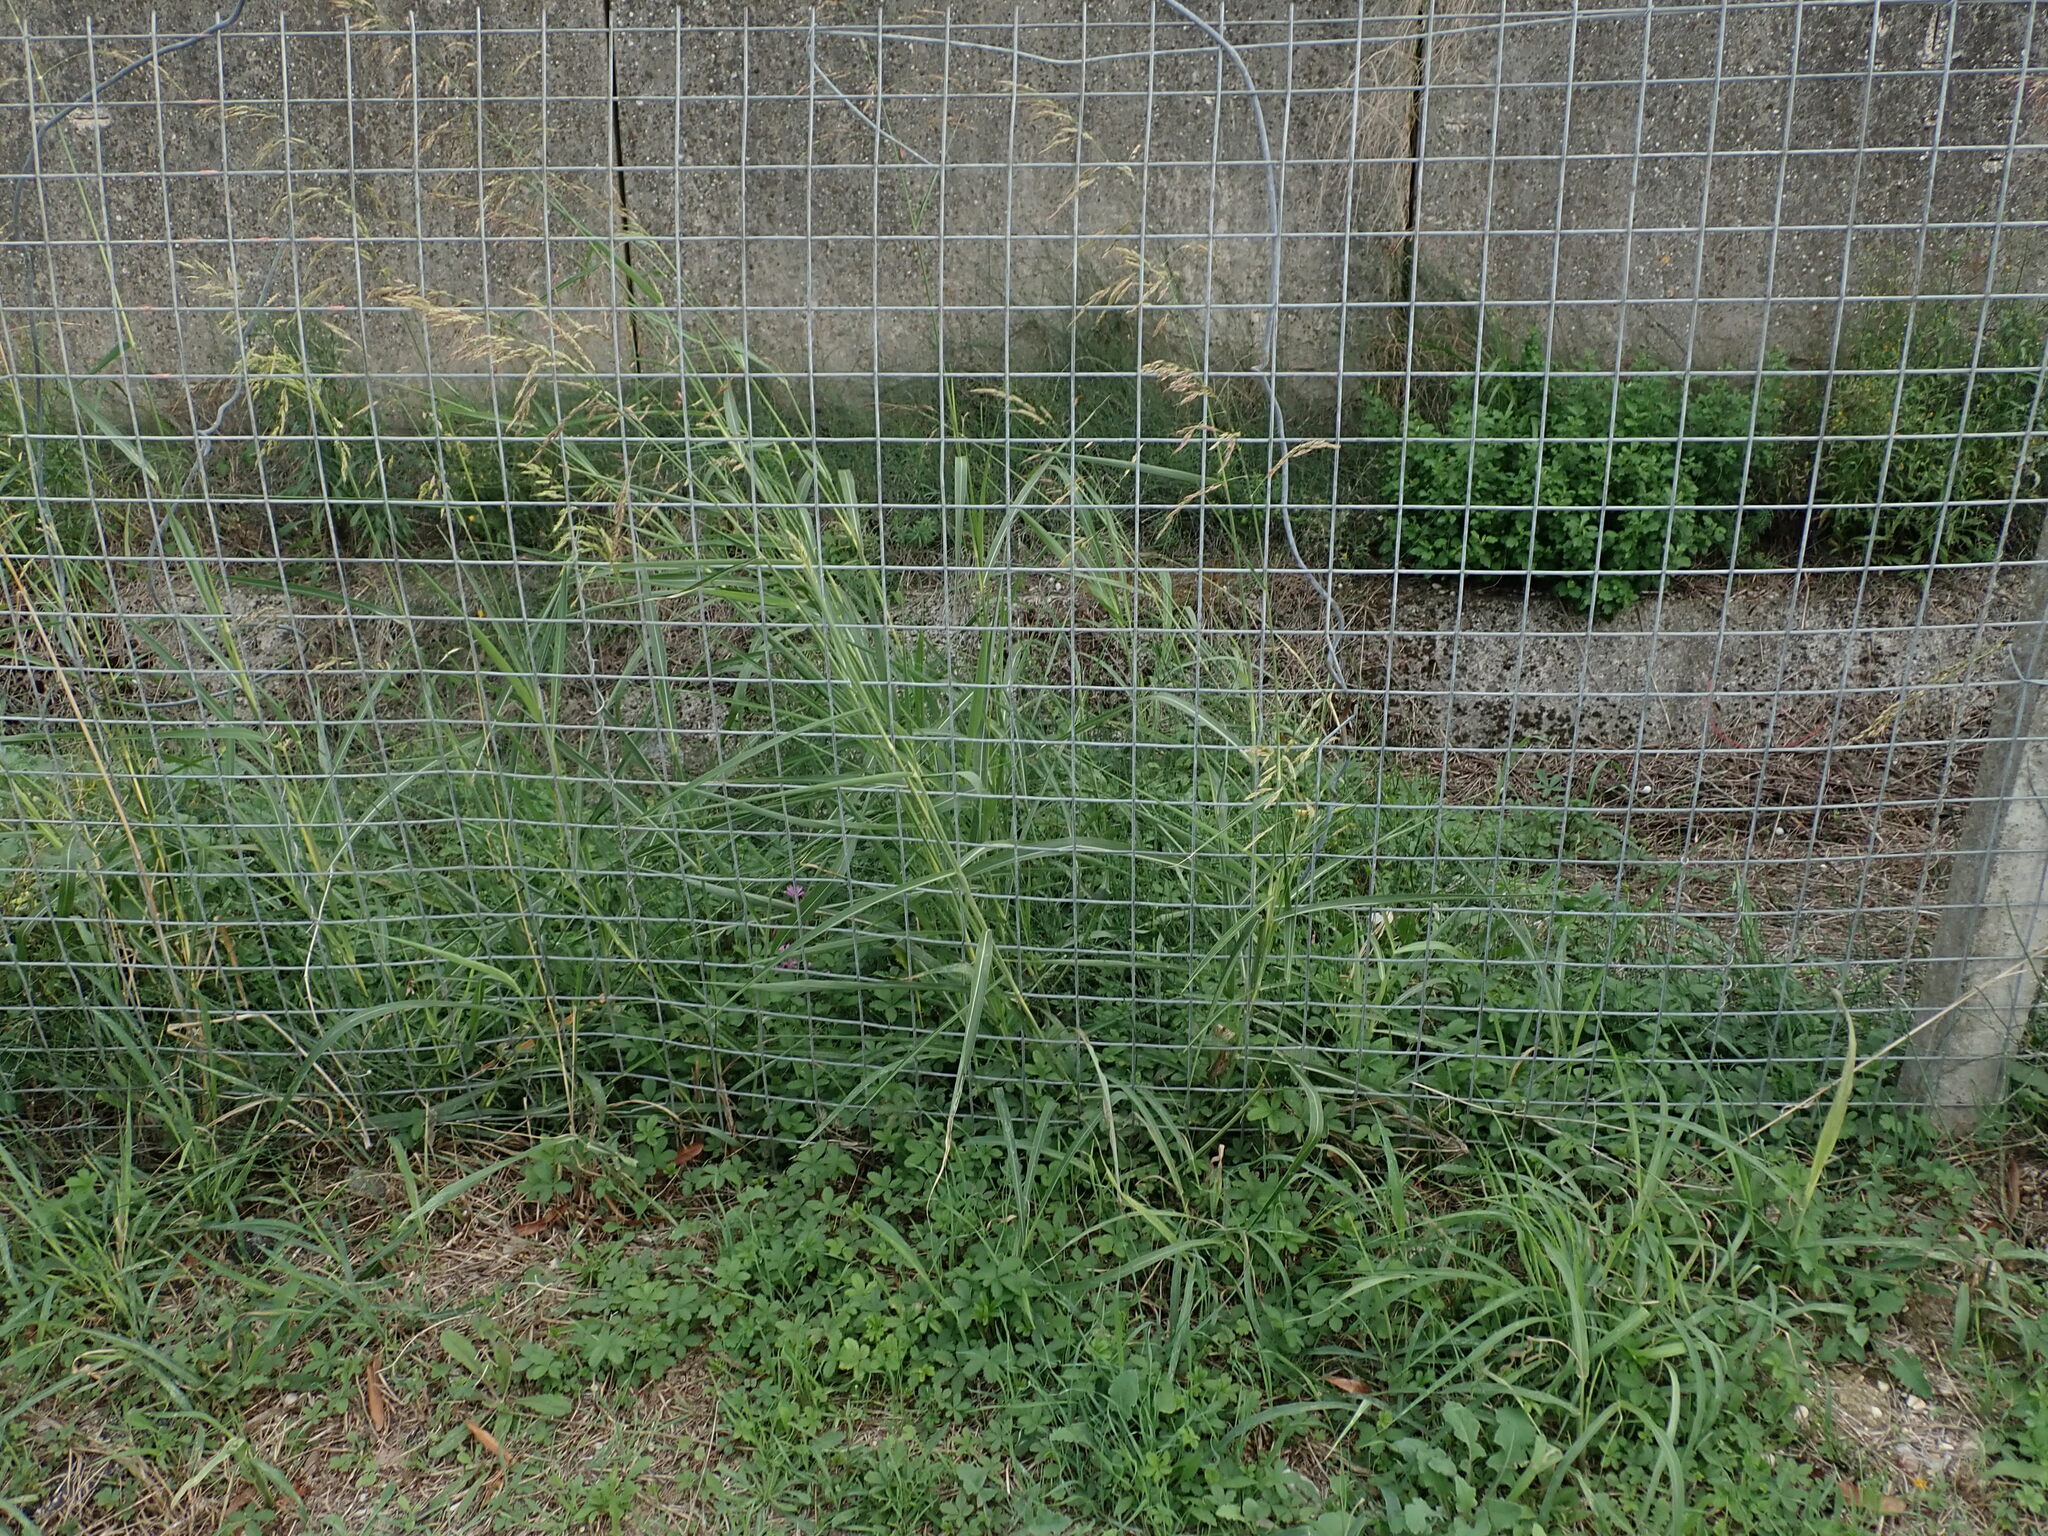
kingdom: Plantae
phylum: Tracheophyta
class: Liliopsida
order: Poales
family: Poaceae
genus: Sorghum
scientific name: Sorghum halepense
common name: Johnson-grass
